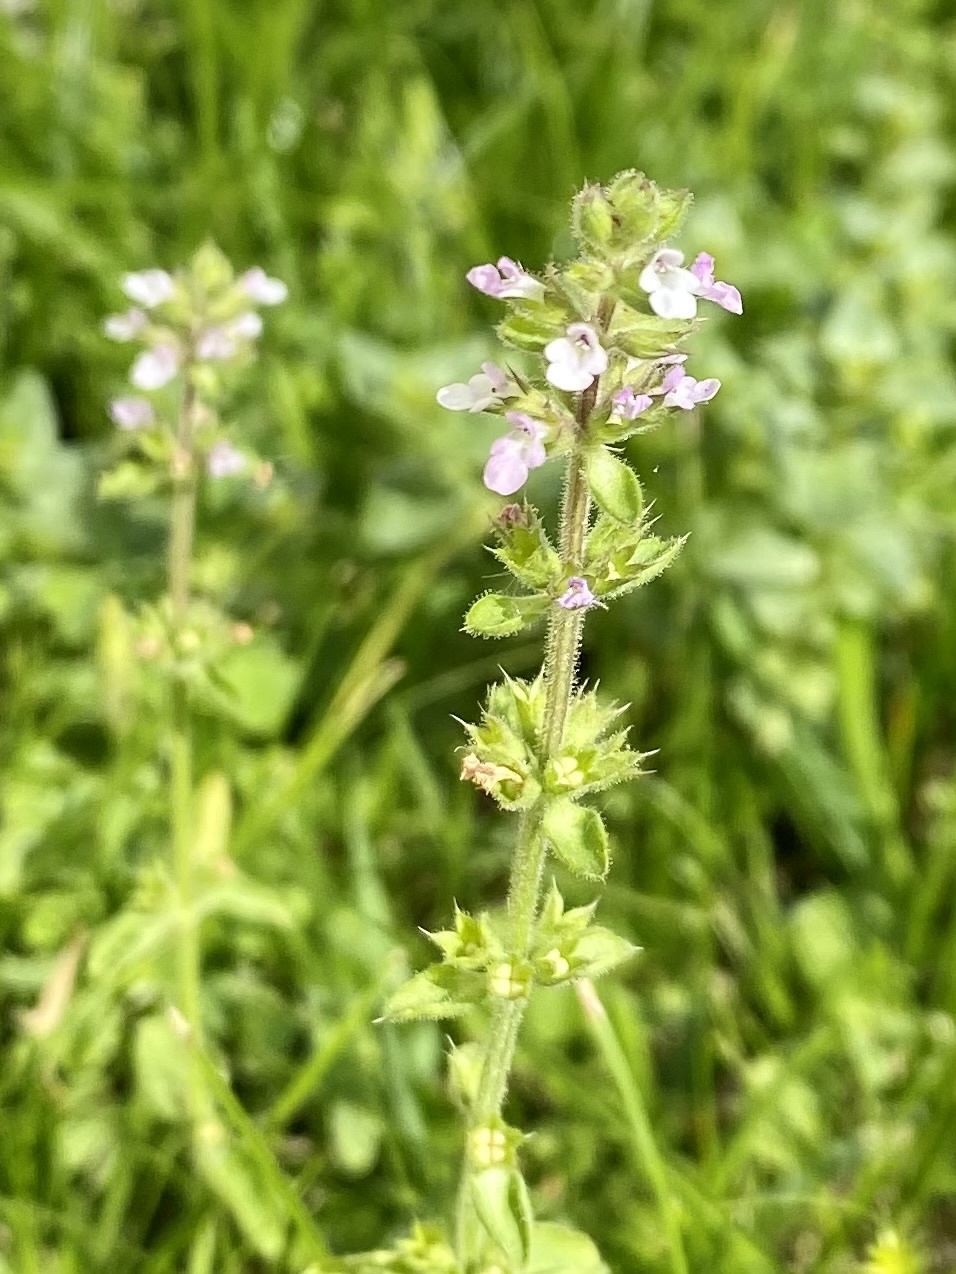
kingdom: Plantae
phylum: Tracheophyta
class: Magnoliopsida
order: Lamiales
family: Lamiaceae
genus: Stachys
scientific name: Stachys
